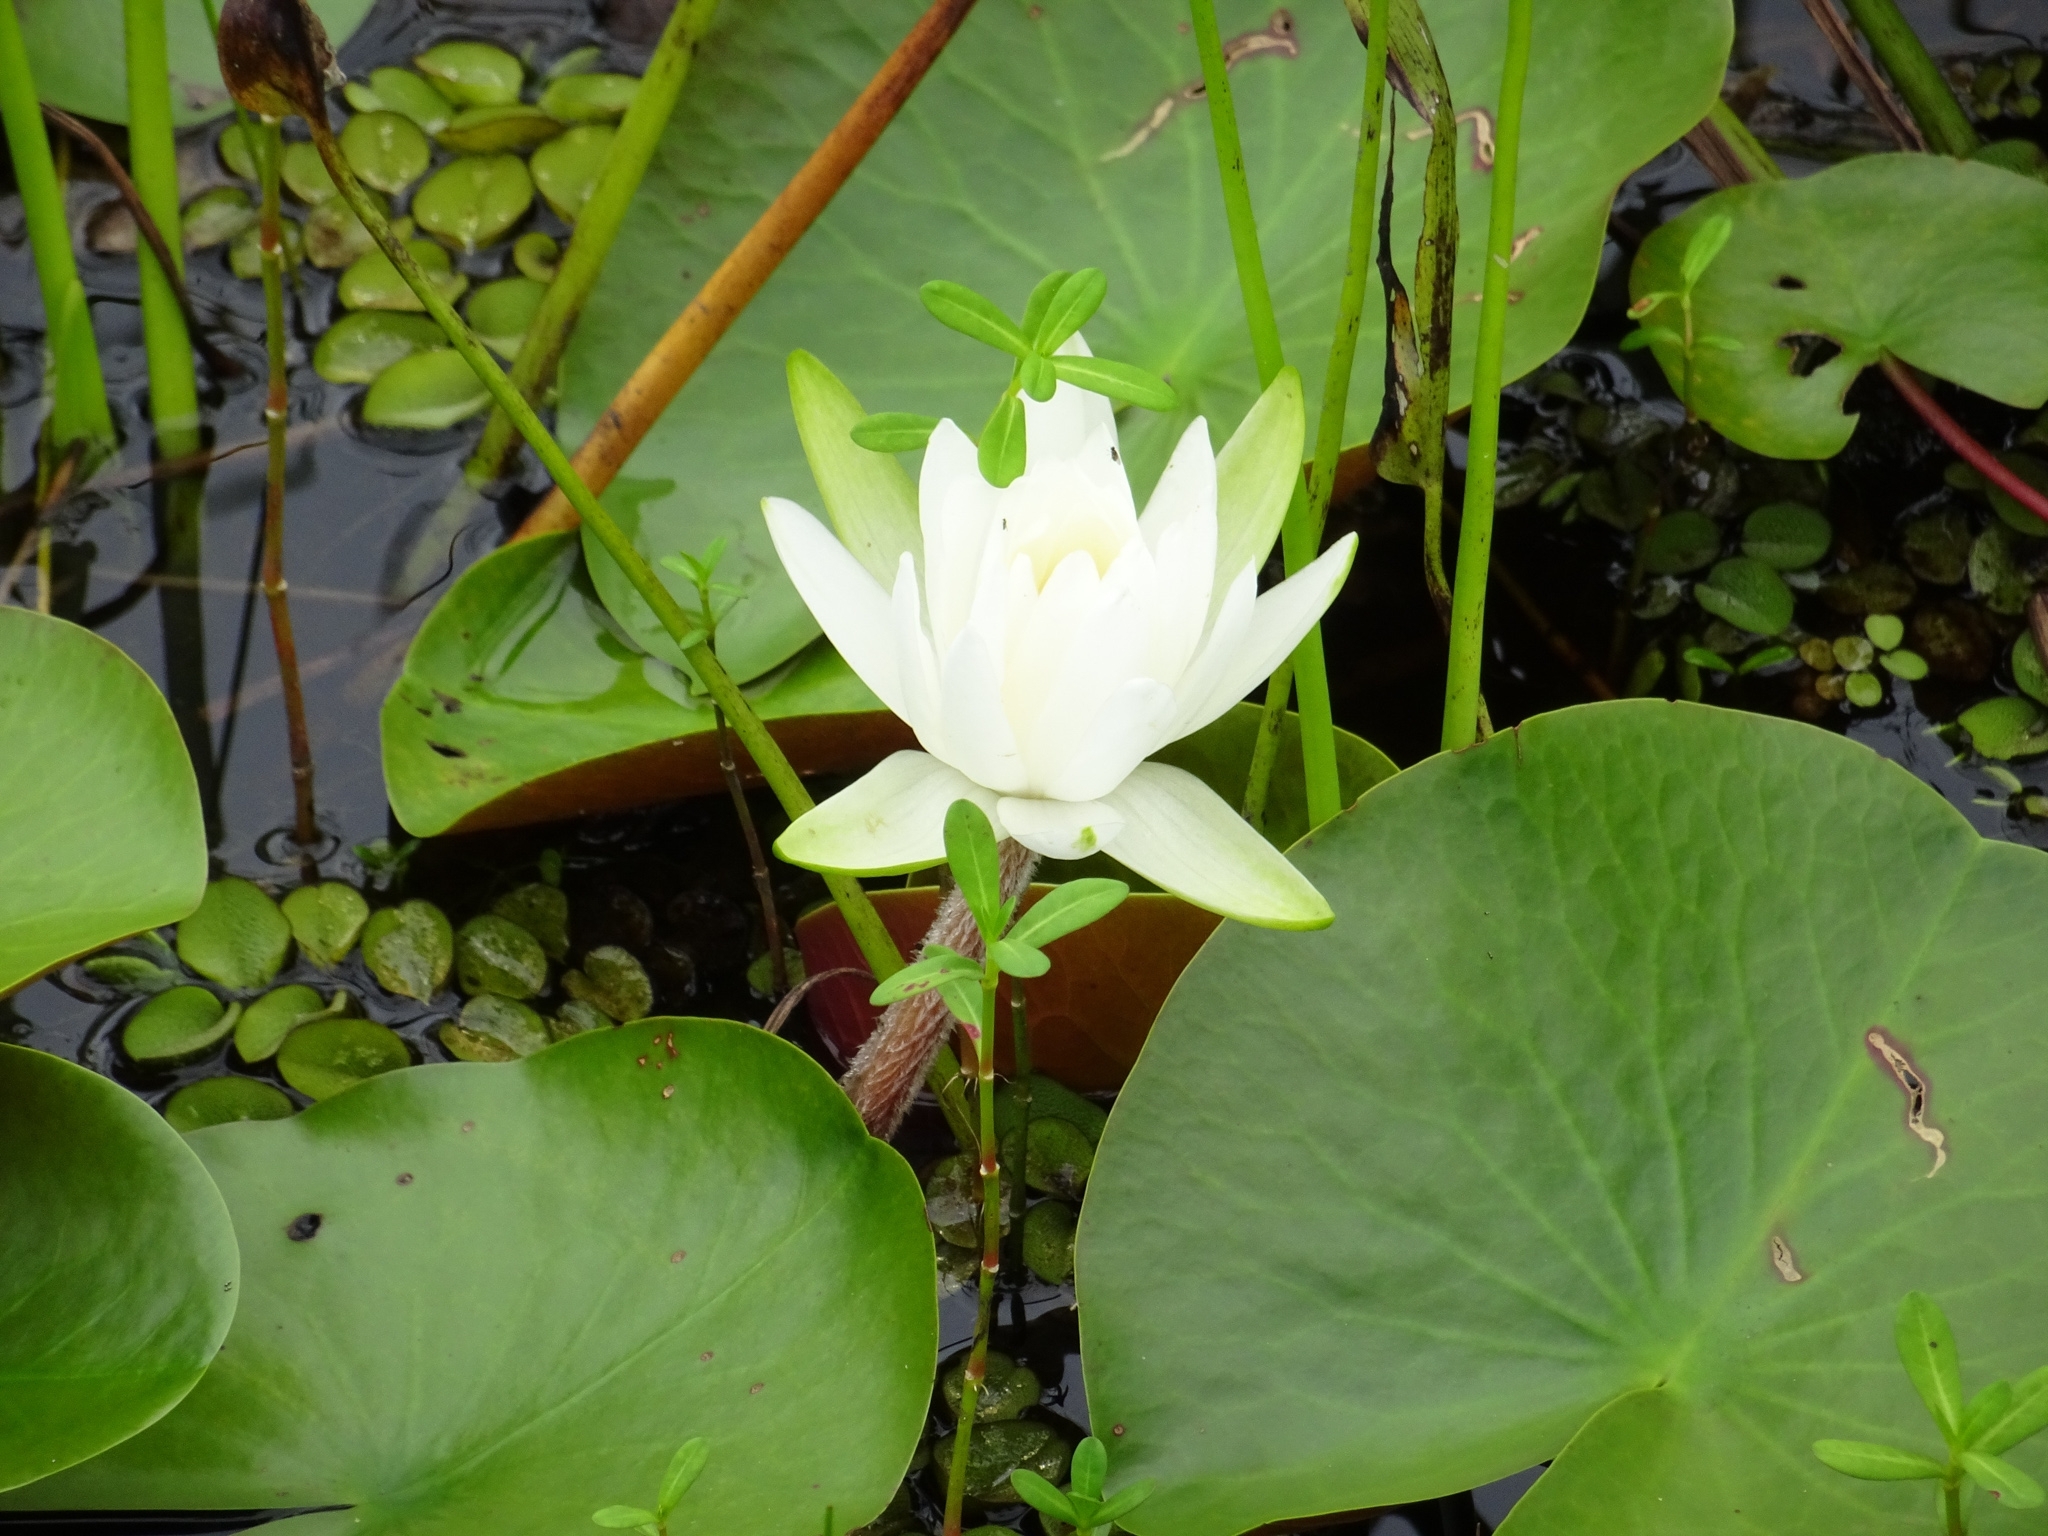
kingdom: Plantae
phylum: Tracheophyta
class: Magnoliopsida
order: Nymphaeales
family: Nymphaeaceae
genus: Nymphaea
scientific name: Nymphaea odorata
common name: Fragrant water-lily
